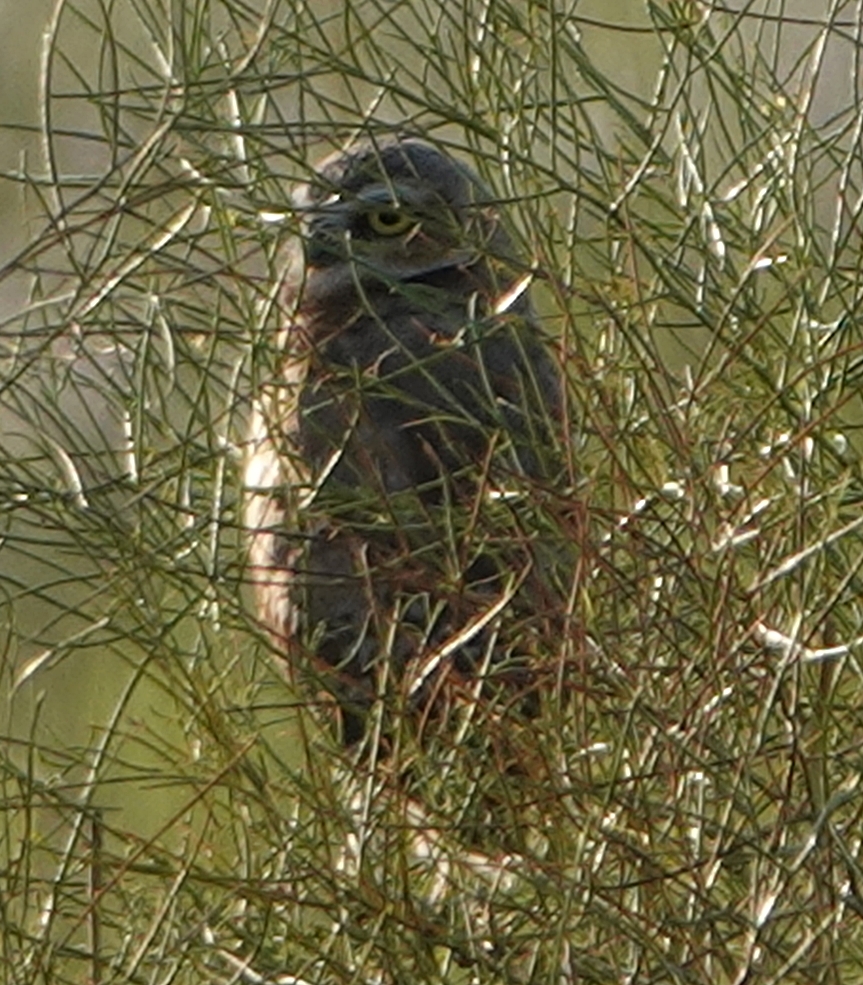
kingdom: Animalia
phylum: Chordata
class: Aves
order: Strigiformes
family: Strigidae
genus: Athene
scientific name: Athene cunicularia
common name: Burrowing owl
